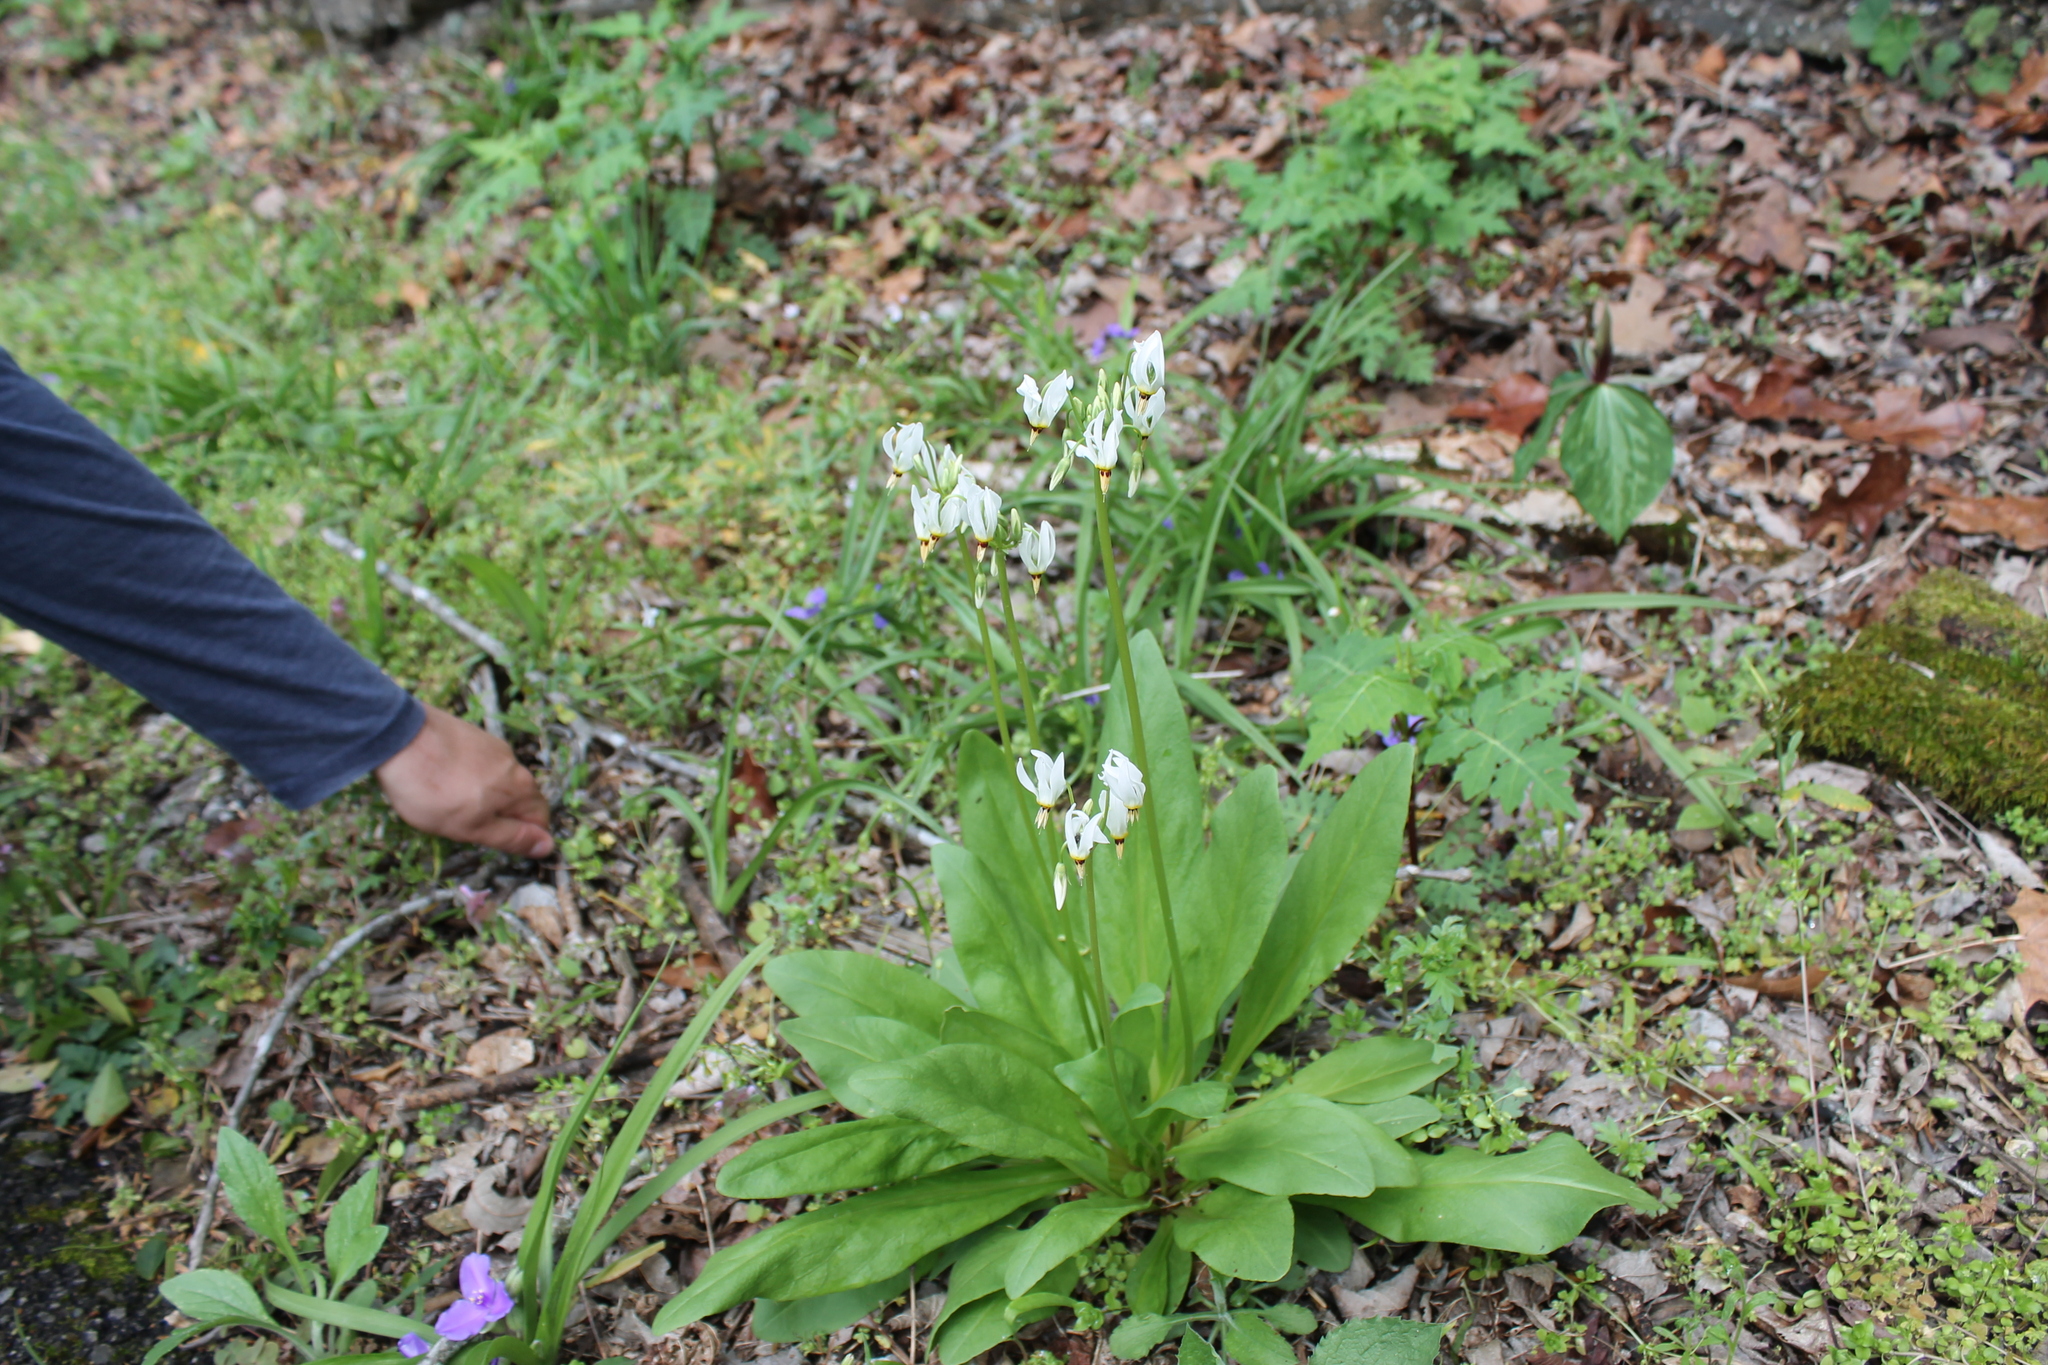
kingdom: Plantae
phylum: Tracheophyta
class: Magnoliopsida
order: Ericales
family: Primulaceae
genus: Dodecatheon
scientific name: Dodecatheon meadia
